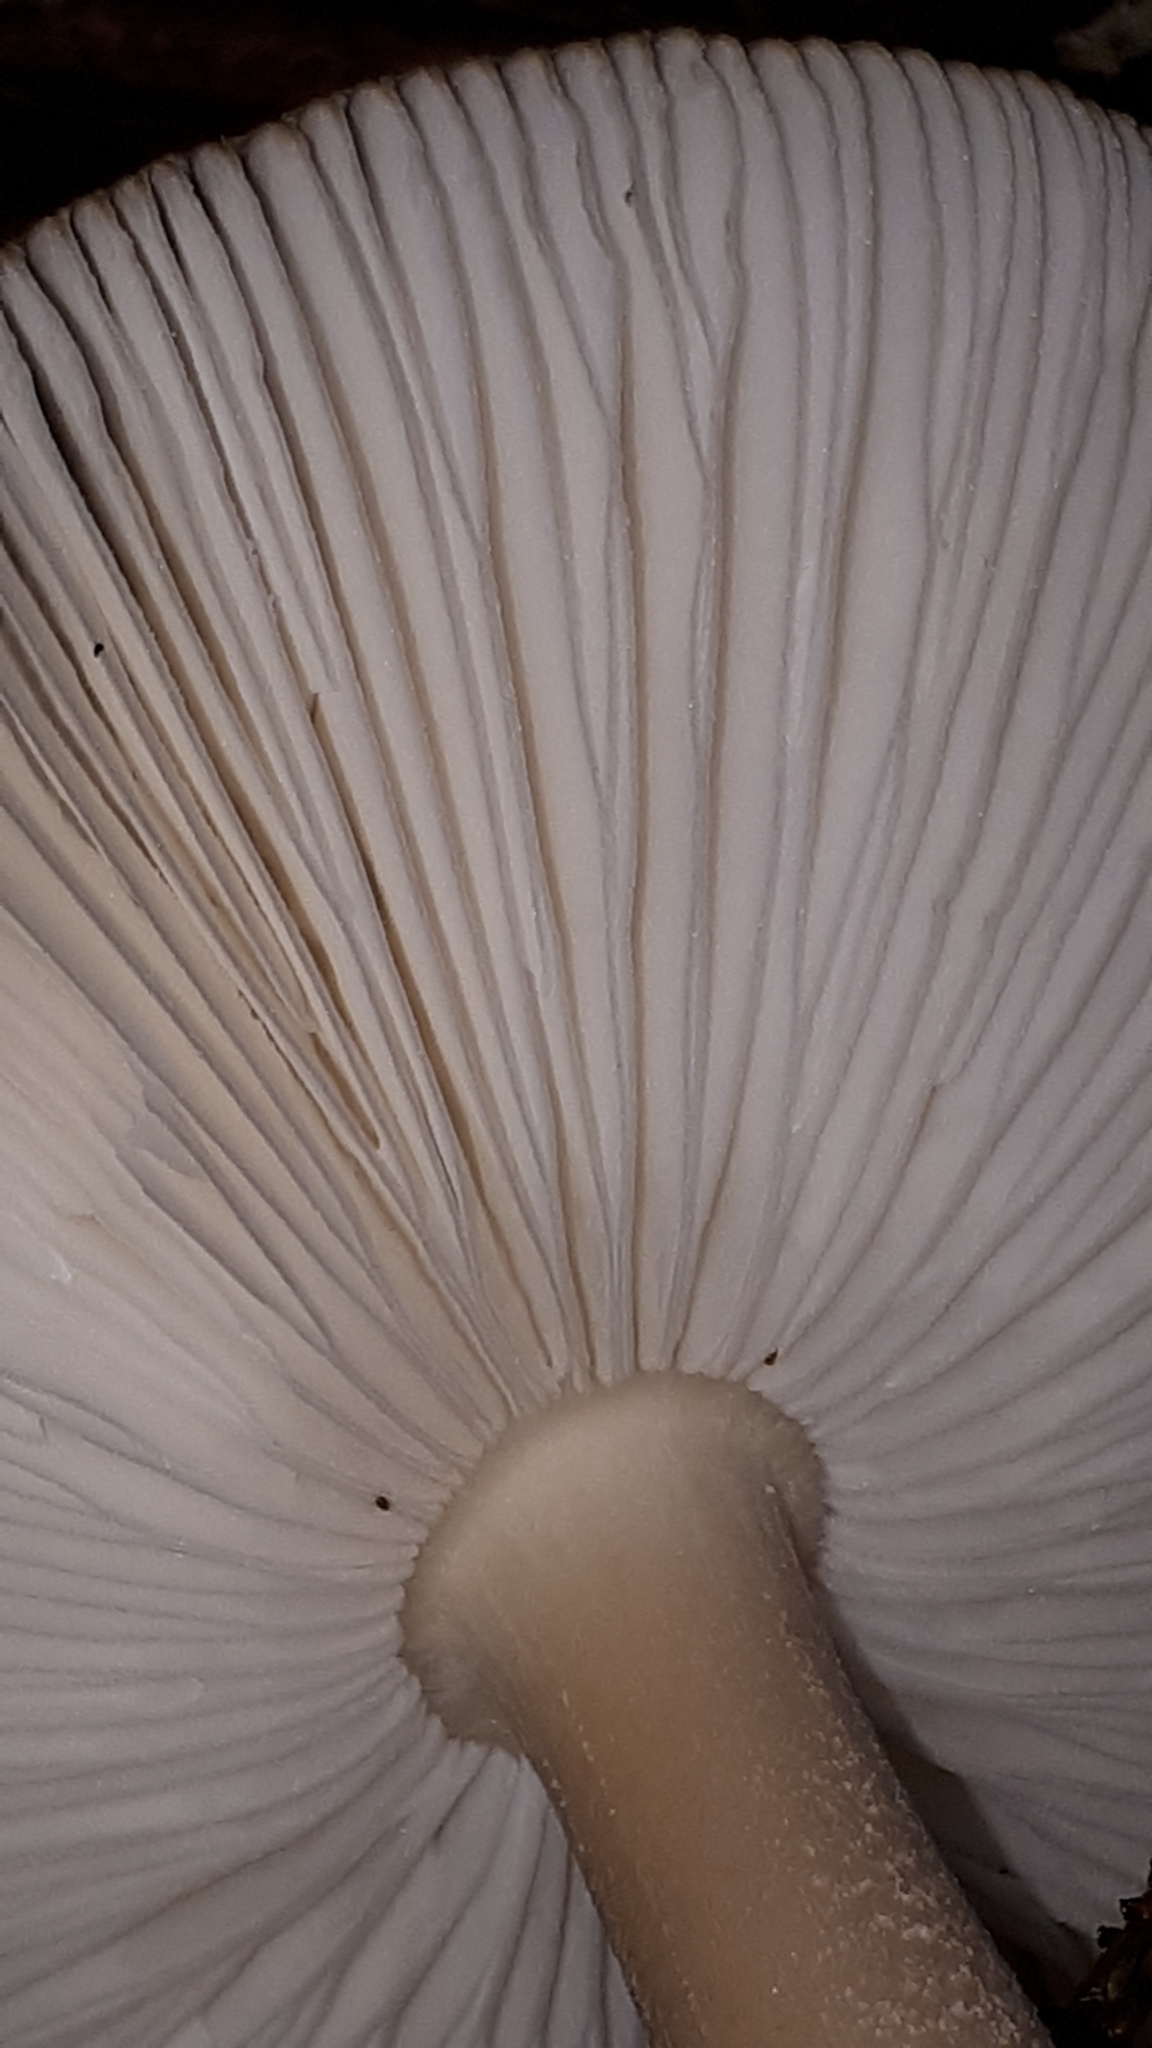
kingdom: Fungi
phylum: Basidiomycota
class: Agaricomycetes
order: Agaricales
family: Amanitaceae
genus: Amanita
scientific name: Amanita submembranacea
